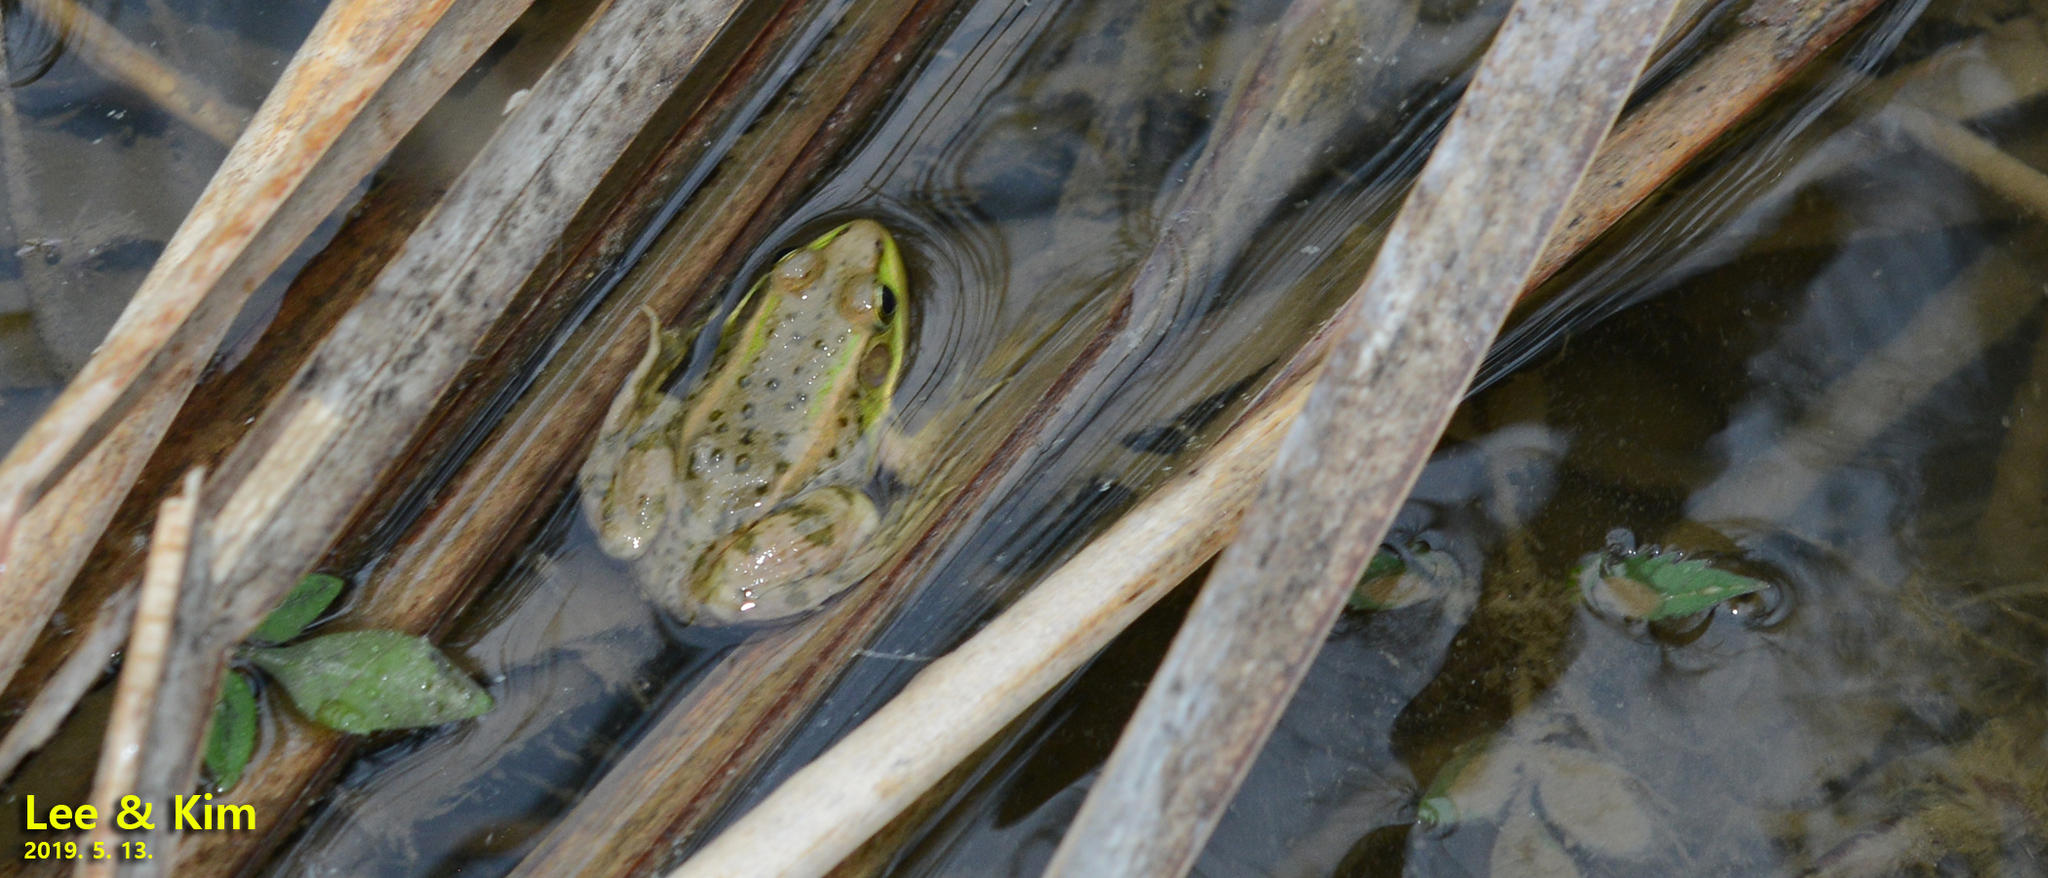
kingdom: Animalia
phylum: Chordata
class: Amphibia
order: Anura
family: Ranidae
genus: Pelophylax
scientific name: Pelophylax chosenicus
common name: Gold-spotted pond frog
